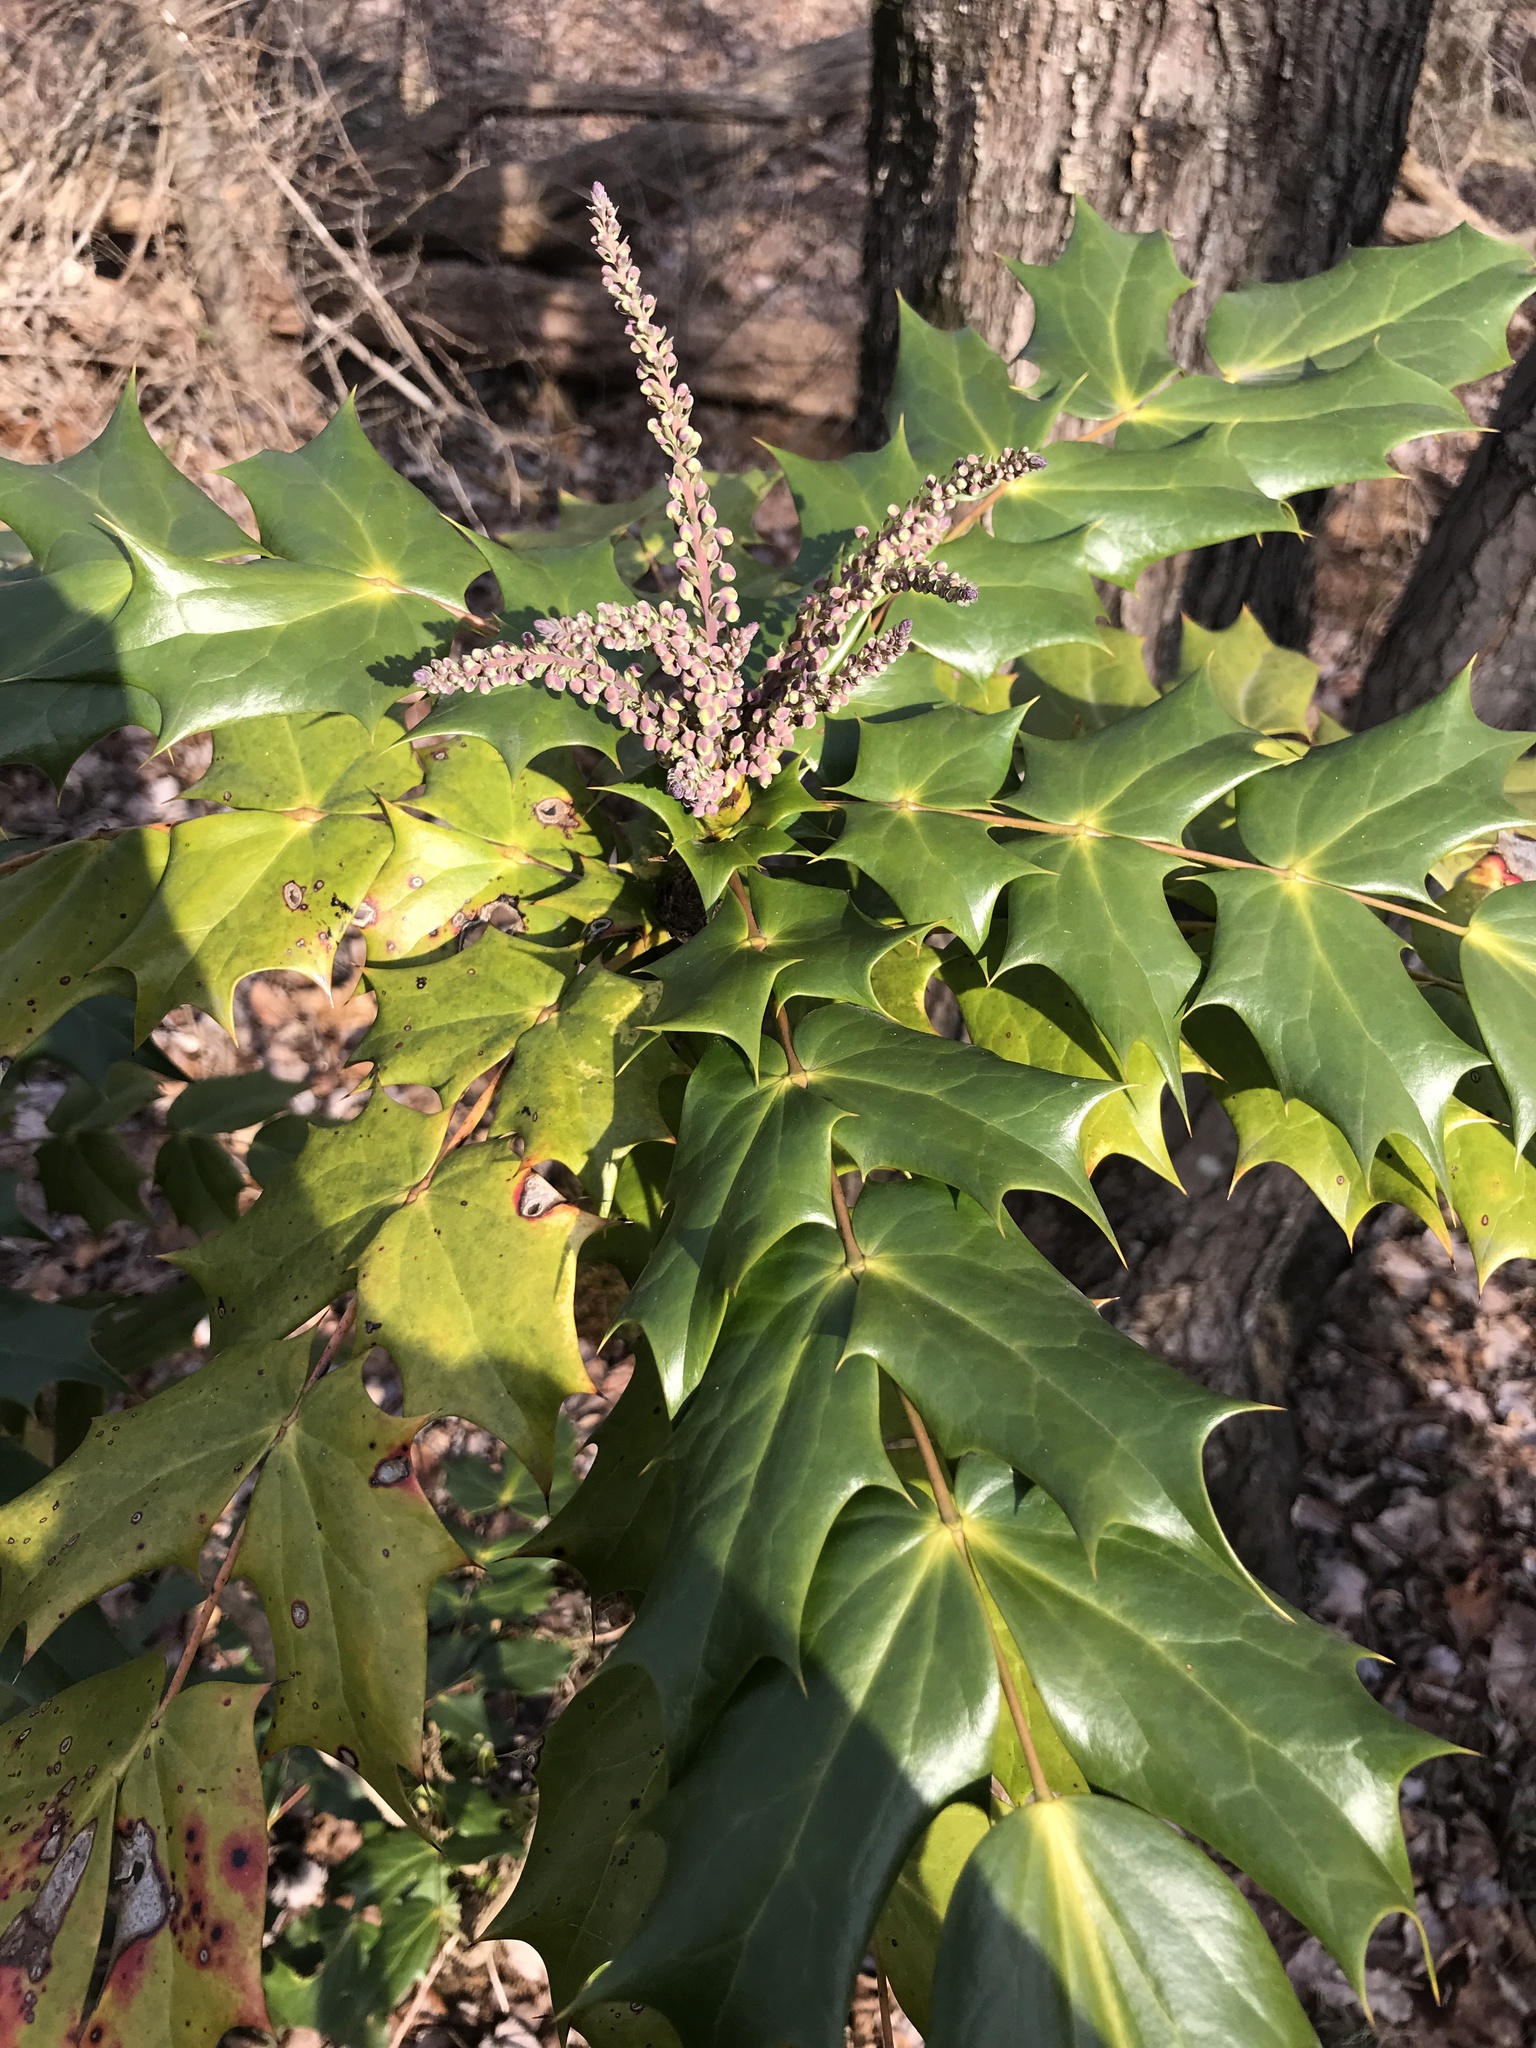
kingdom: Plantae
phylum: Tracheophyta
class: Magnoliopsida
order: Ranunculales
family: Berberidaceae
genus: Mahonia
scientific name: Mahonia bealei
